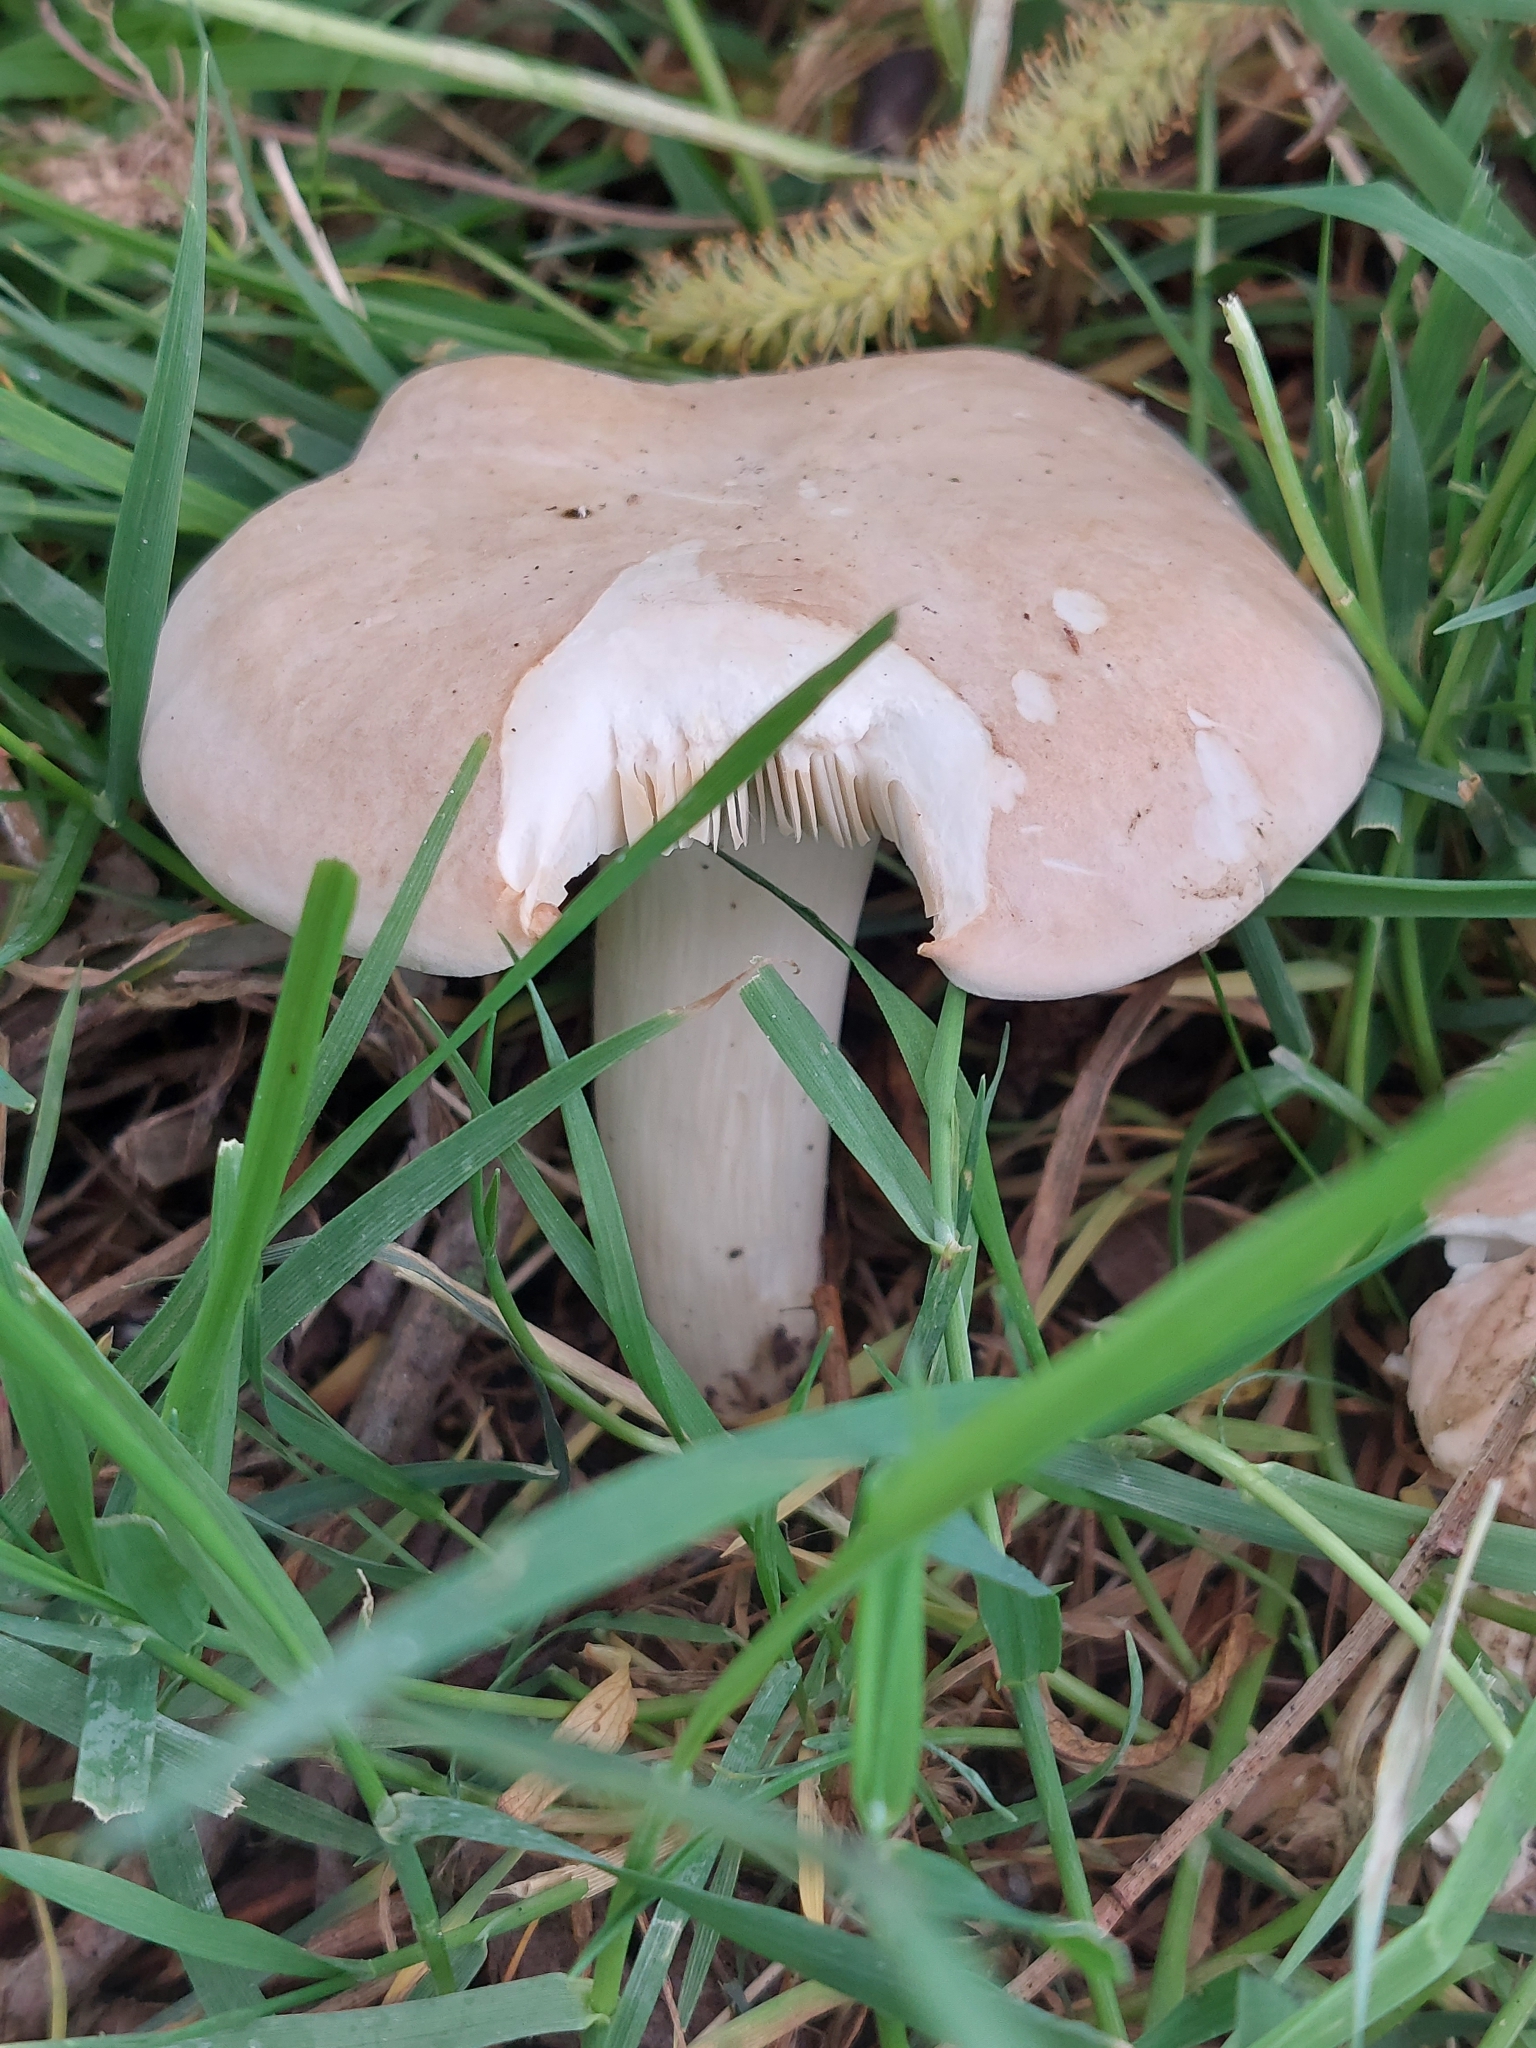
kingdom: Fungi
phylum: Basidiomycota
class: Agaricomycetes
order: Agaricales
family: Lyophyllaceae
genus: Calocybe
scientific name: Calocybe gambosa
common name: St. george's mushroom
